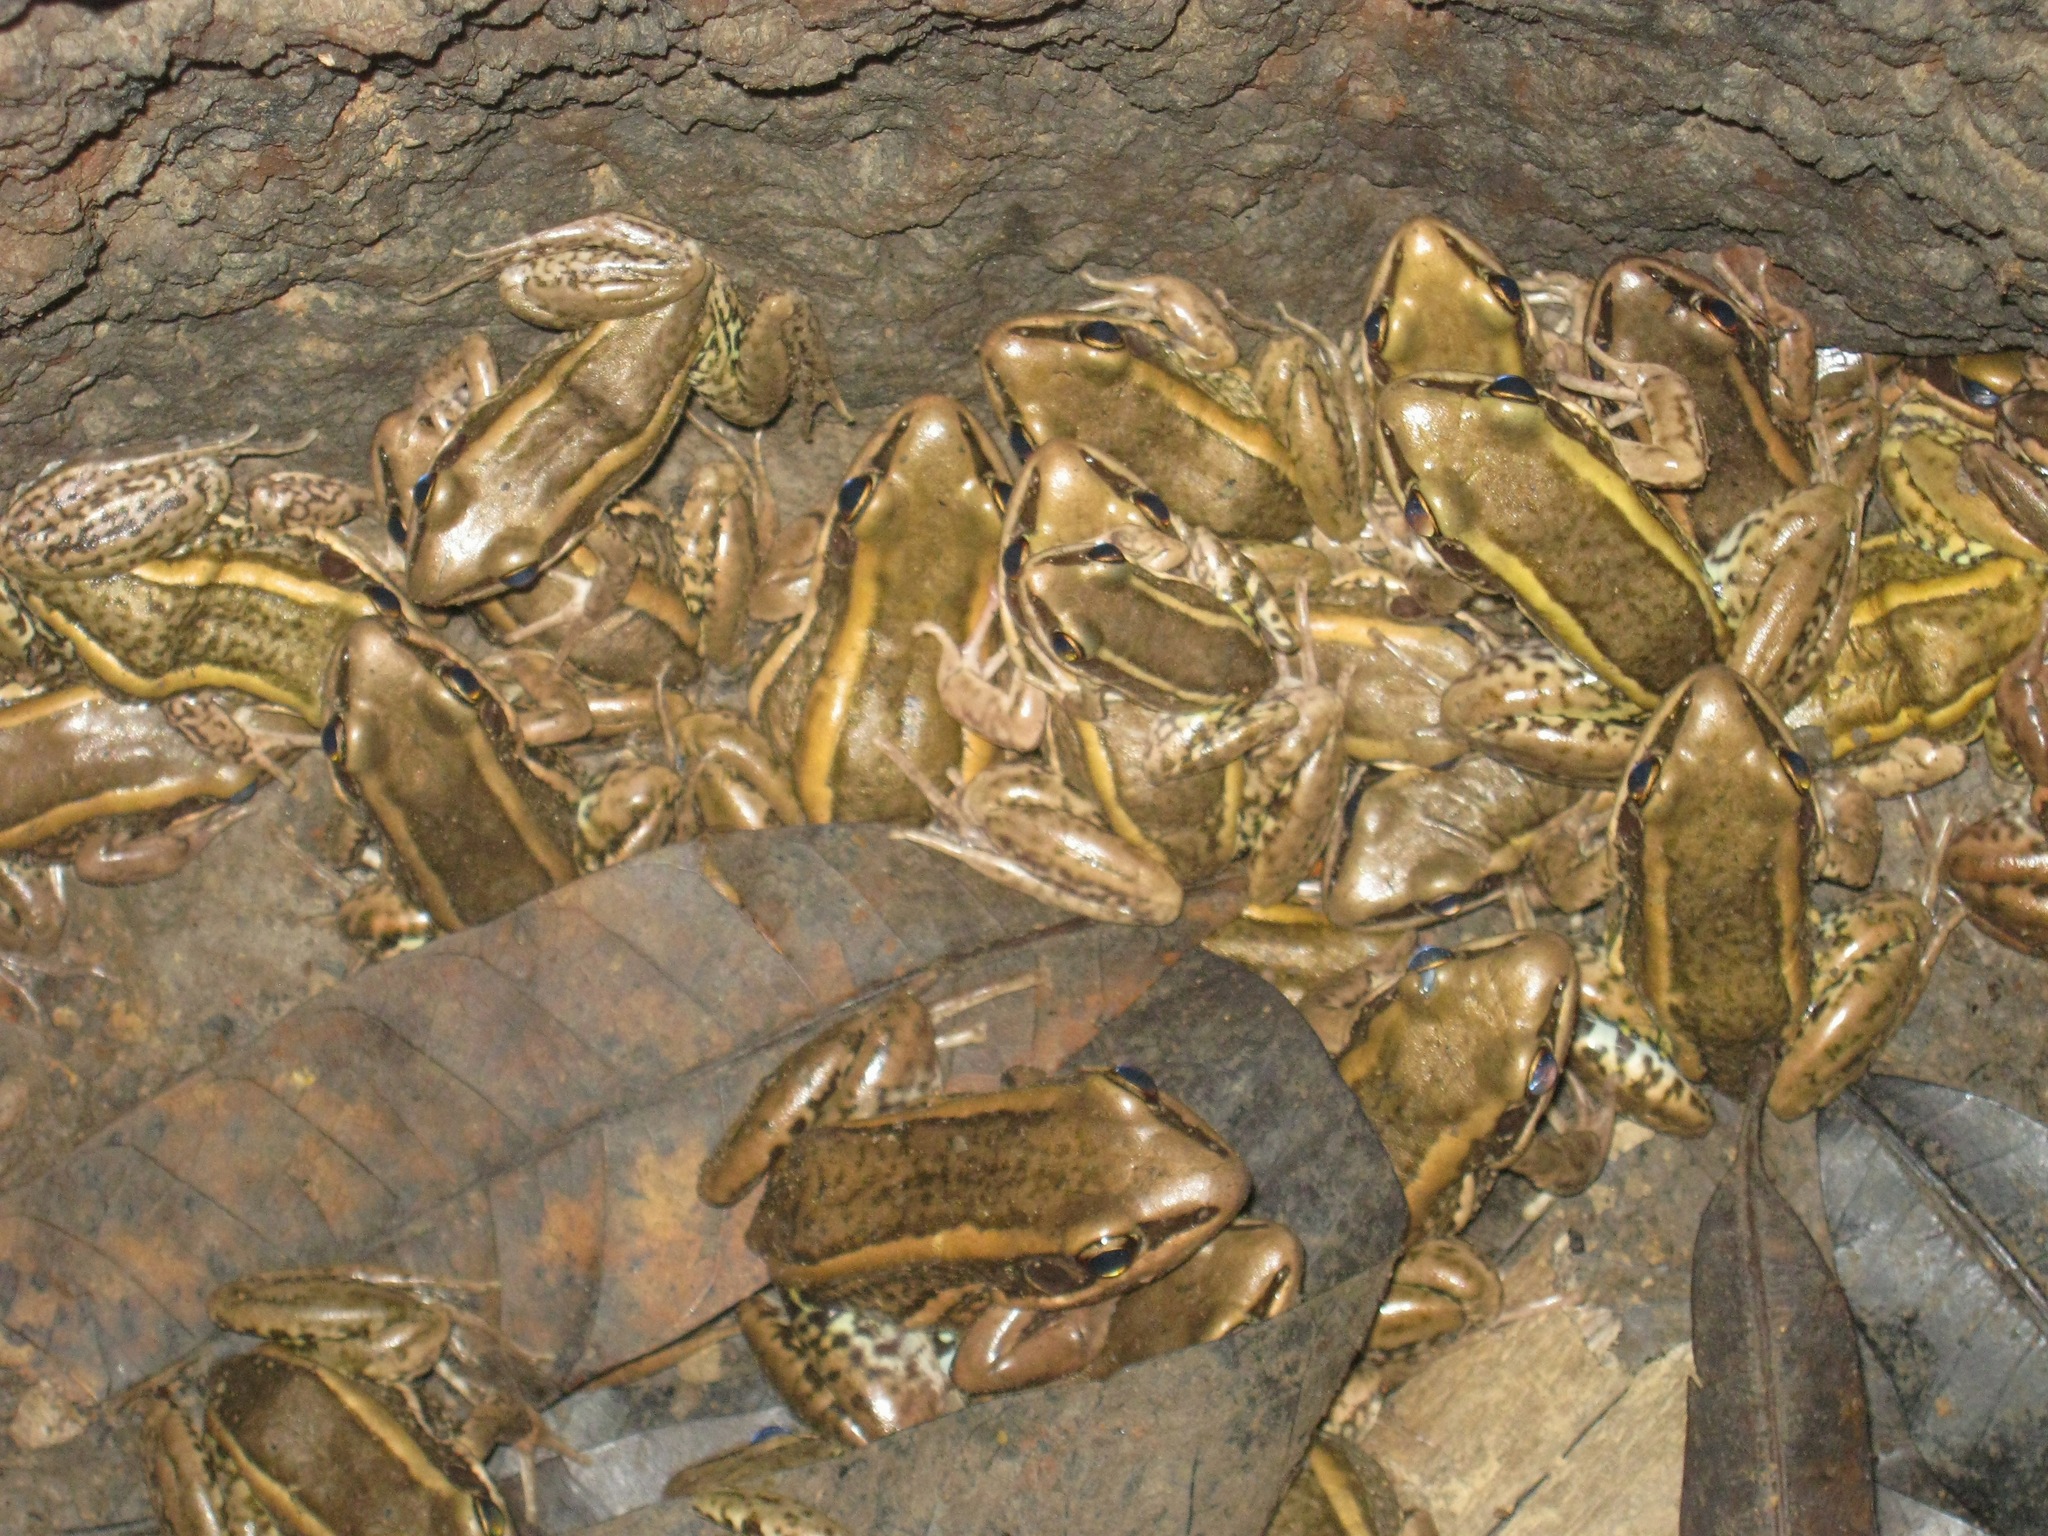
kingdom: Animalia
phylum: Chordata
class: Amphibia
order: Anura
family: Ranidae
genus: Amnirana
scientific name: Amnirana galamensis
